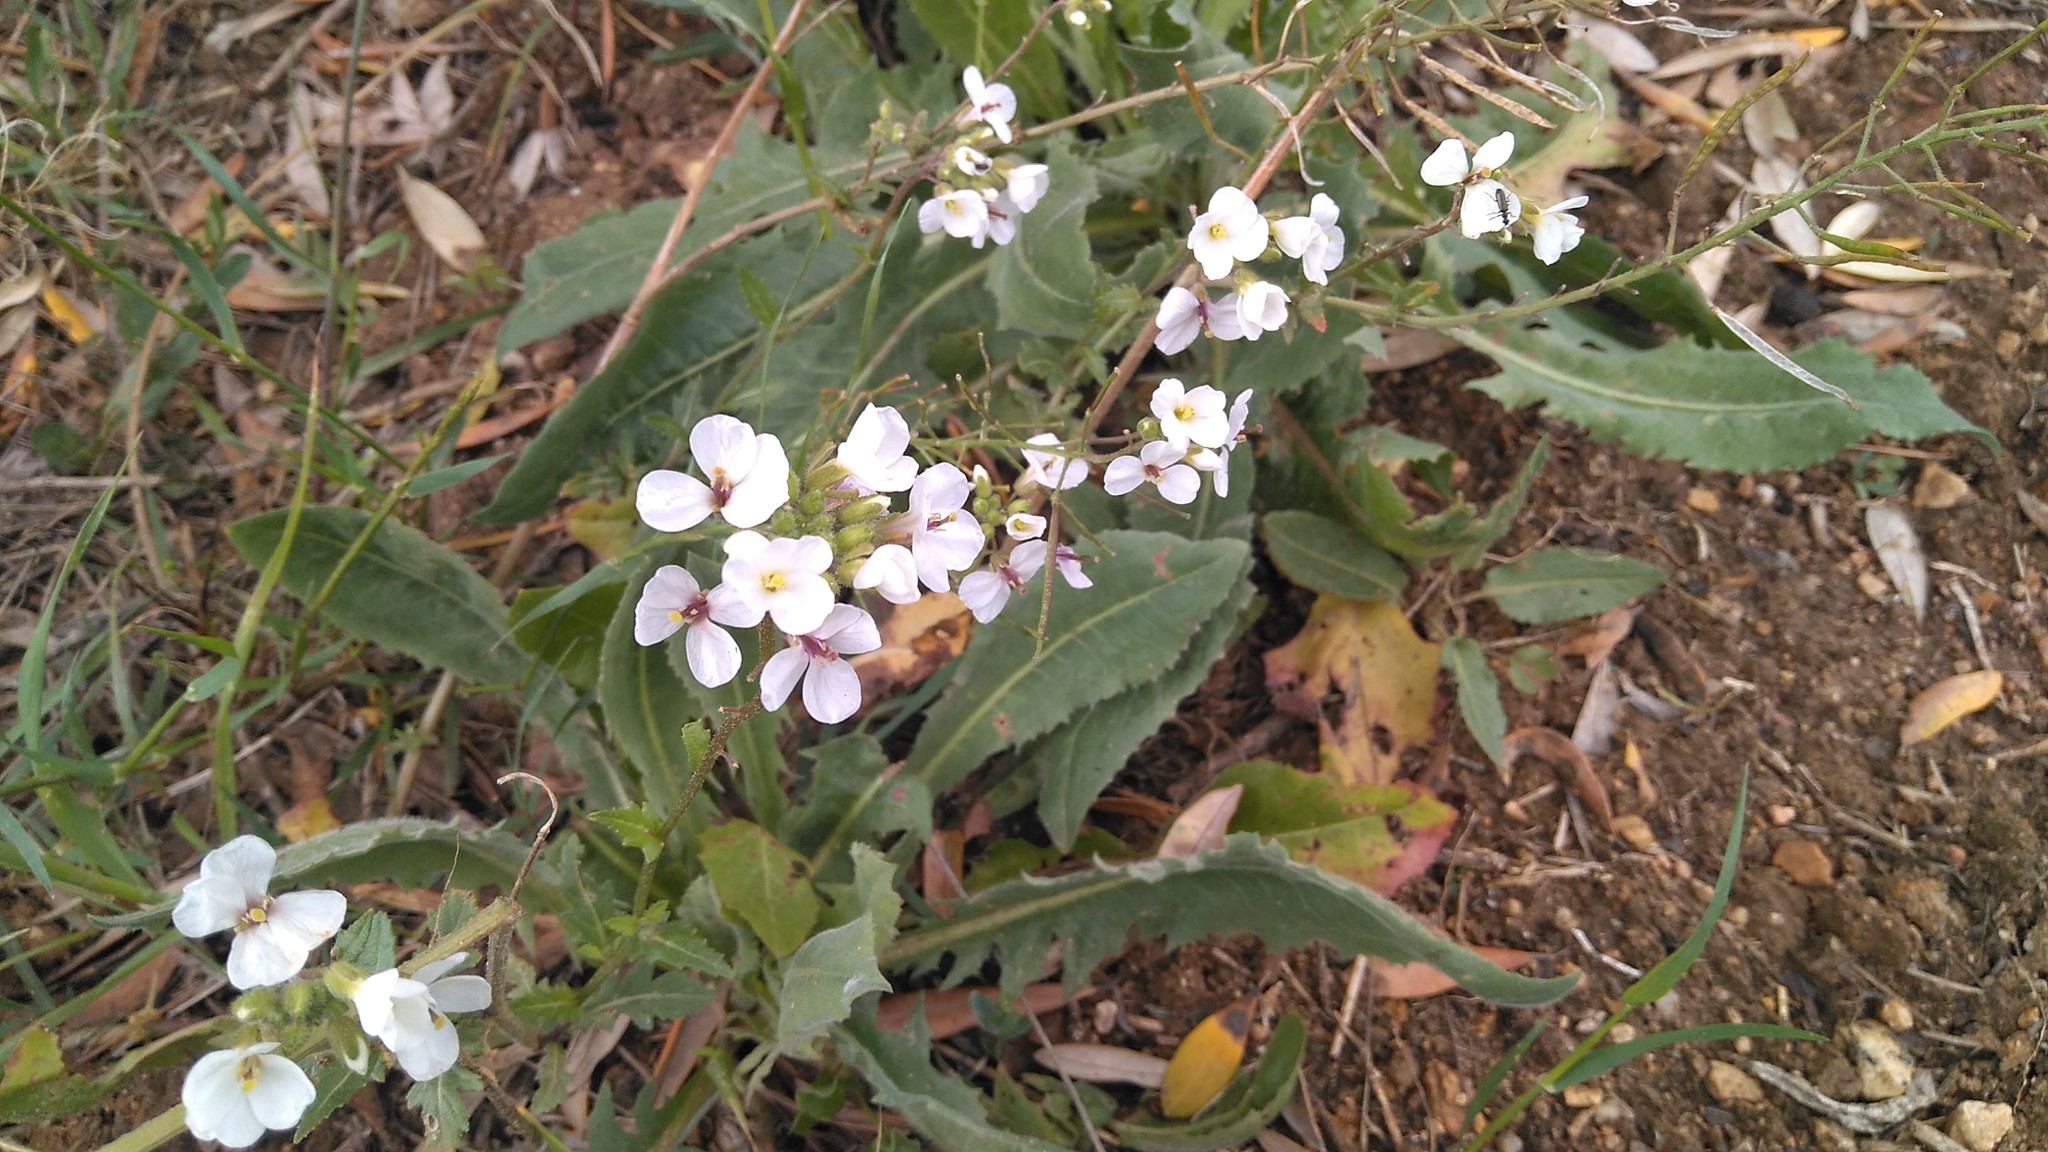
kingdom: Plantae
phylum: Tracheophyta
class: Magnoliopsida
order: Brassicales
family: Brassicaceae
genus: Diplotaxis
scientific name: Diplotaxis erucoides
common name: White rocket
